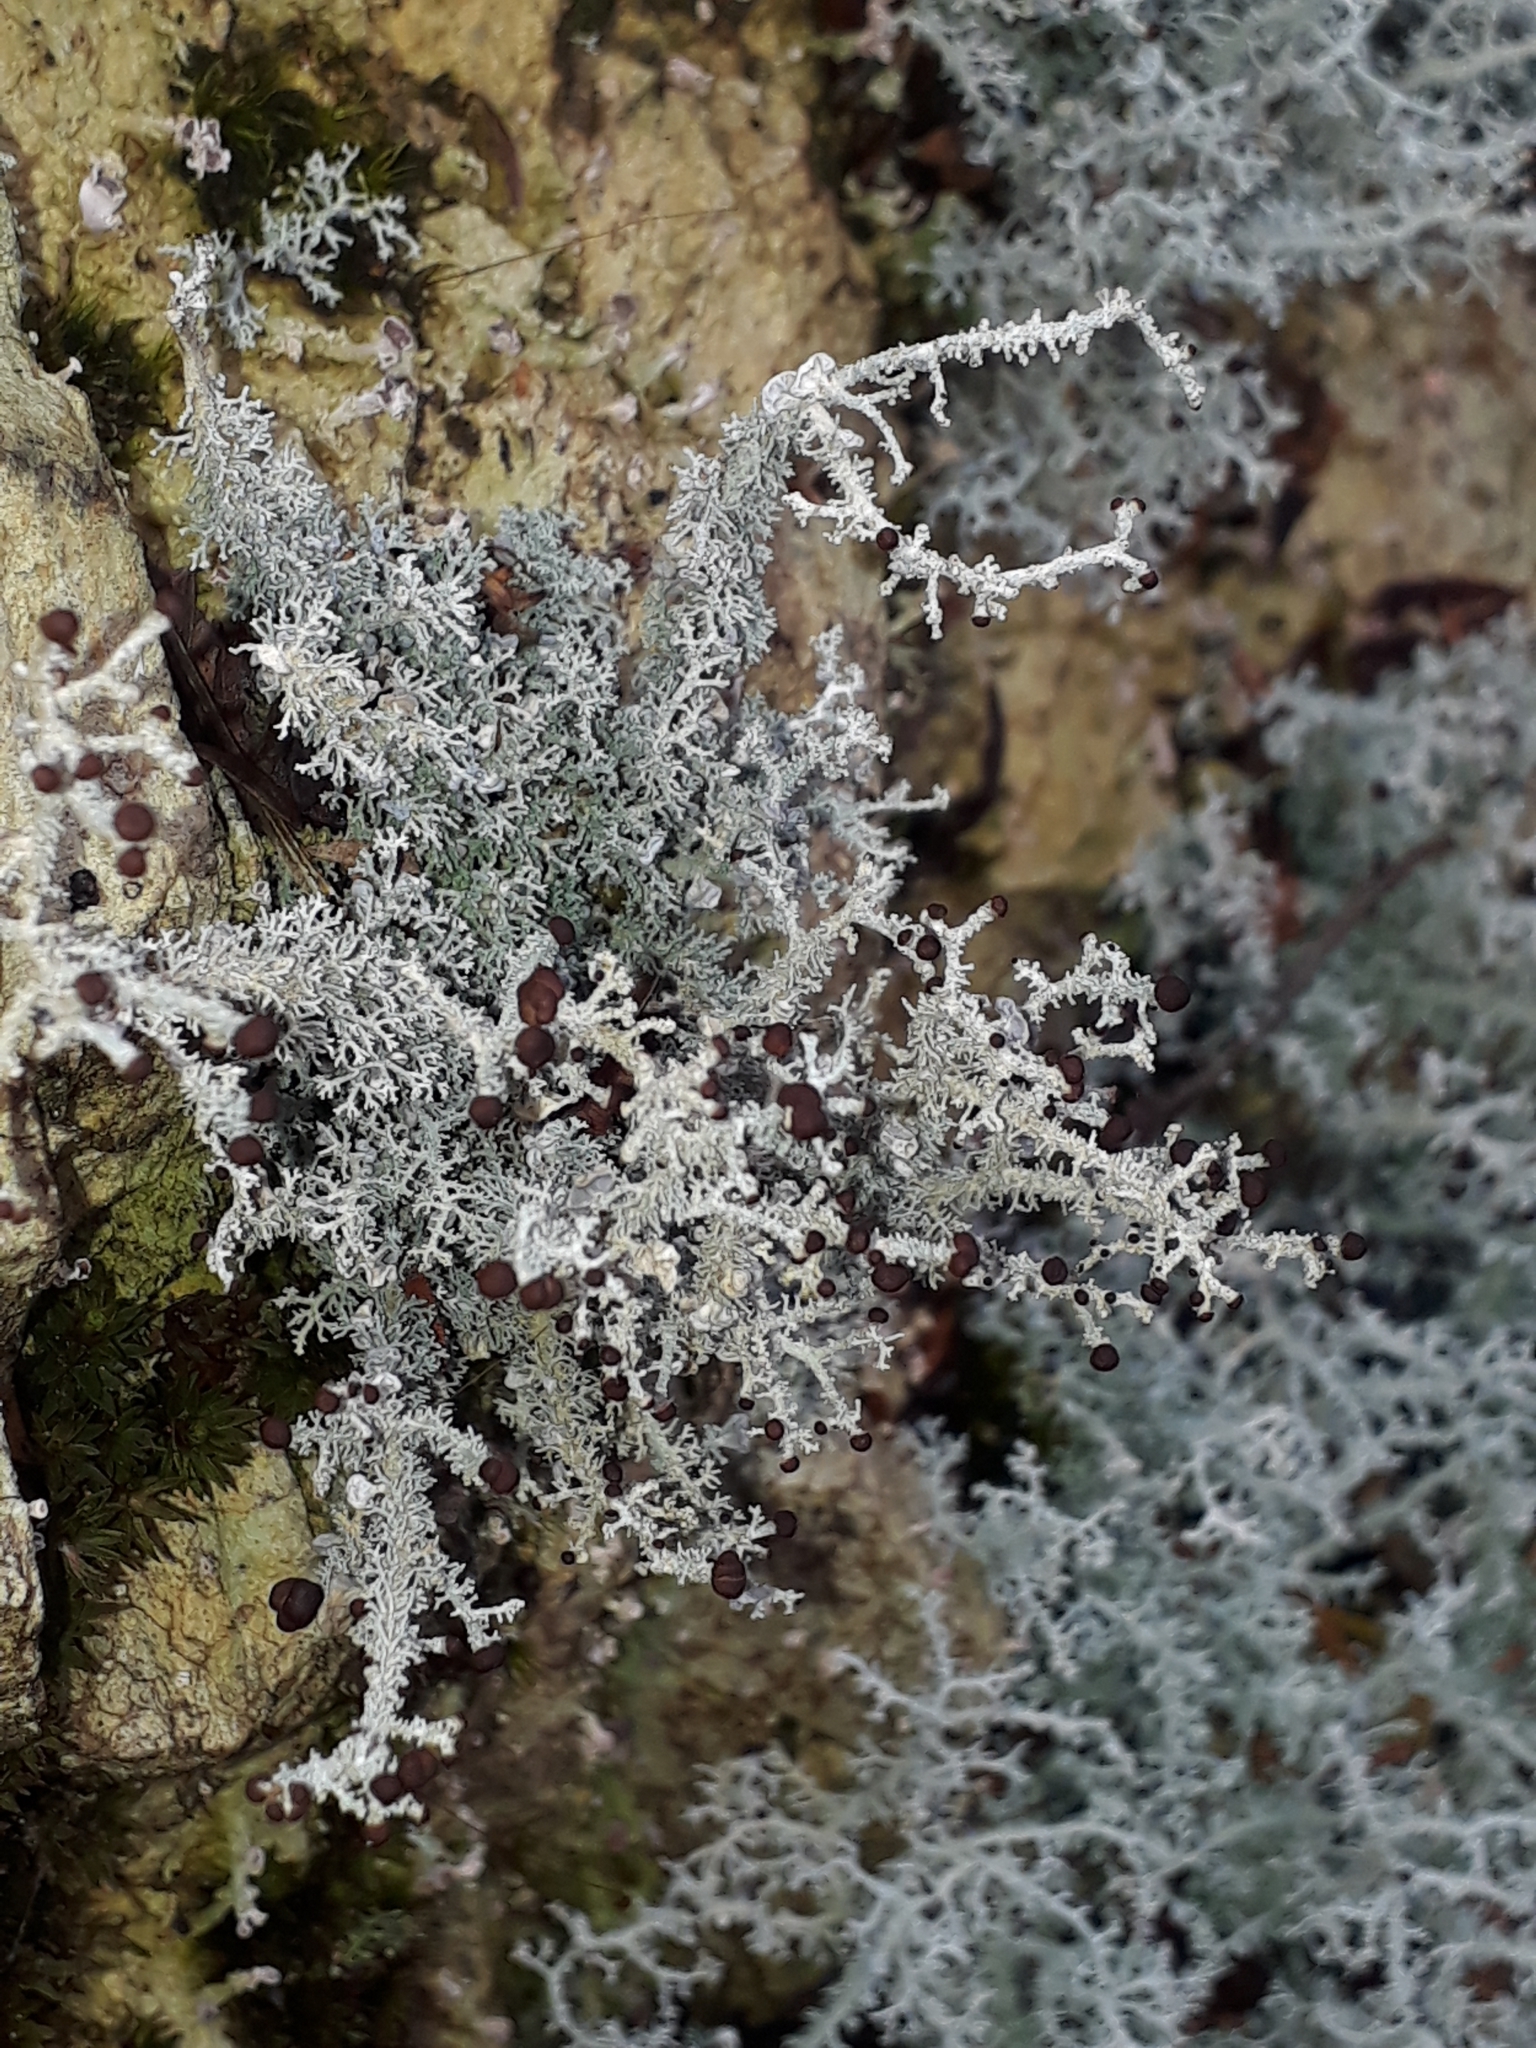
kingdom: Fungi
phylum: Ascomycota
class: Lecanoromycetes
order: Lecanorales
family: Stereocaulaceae
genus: Stereocaulon
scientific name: Stereocaulon ramulosum
